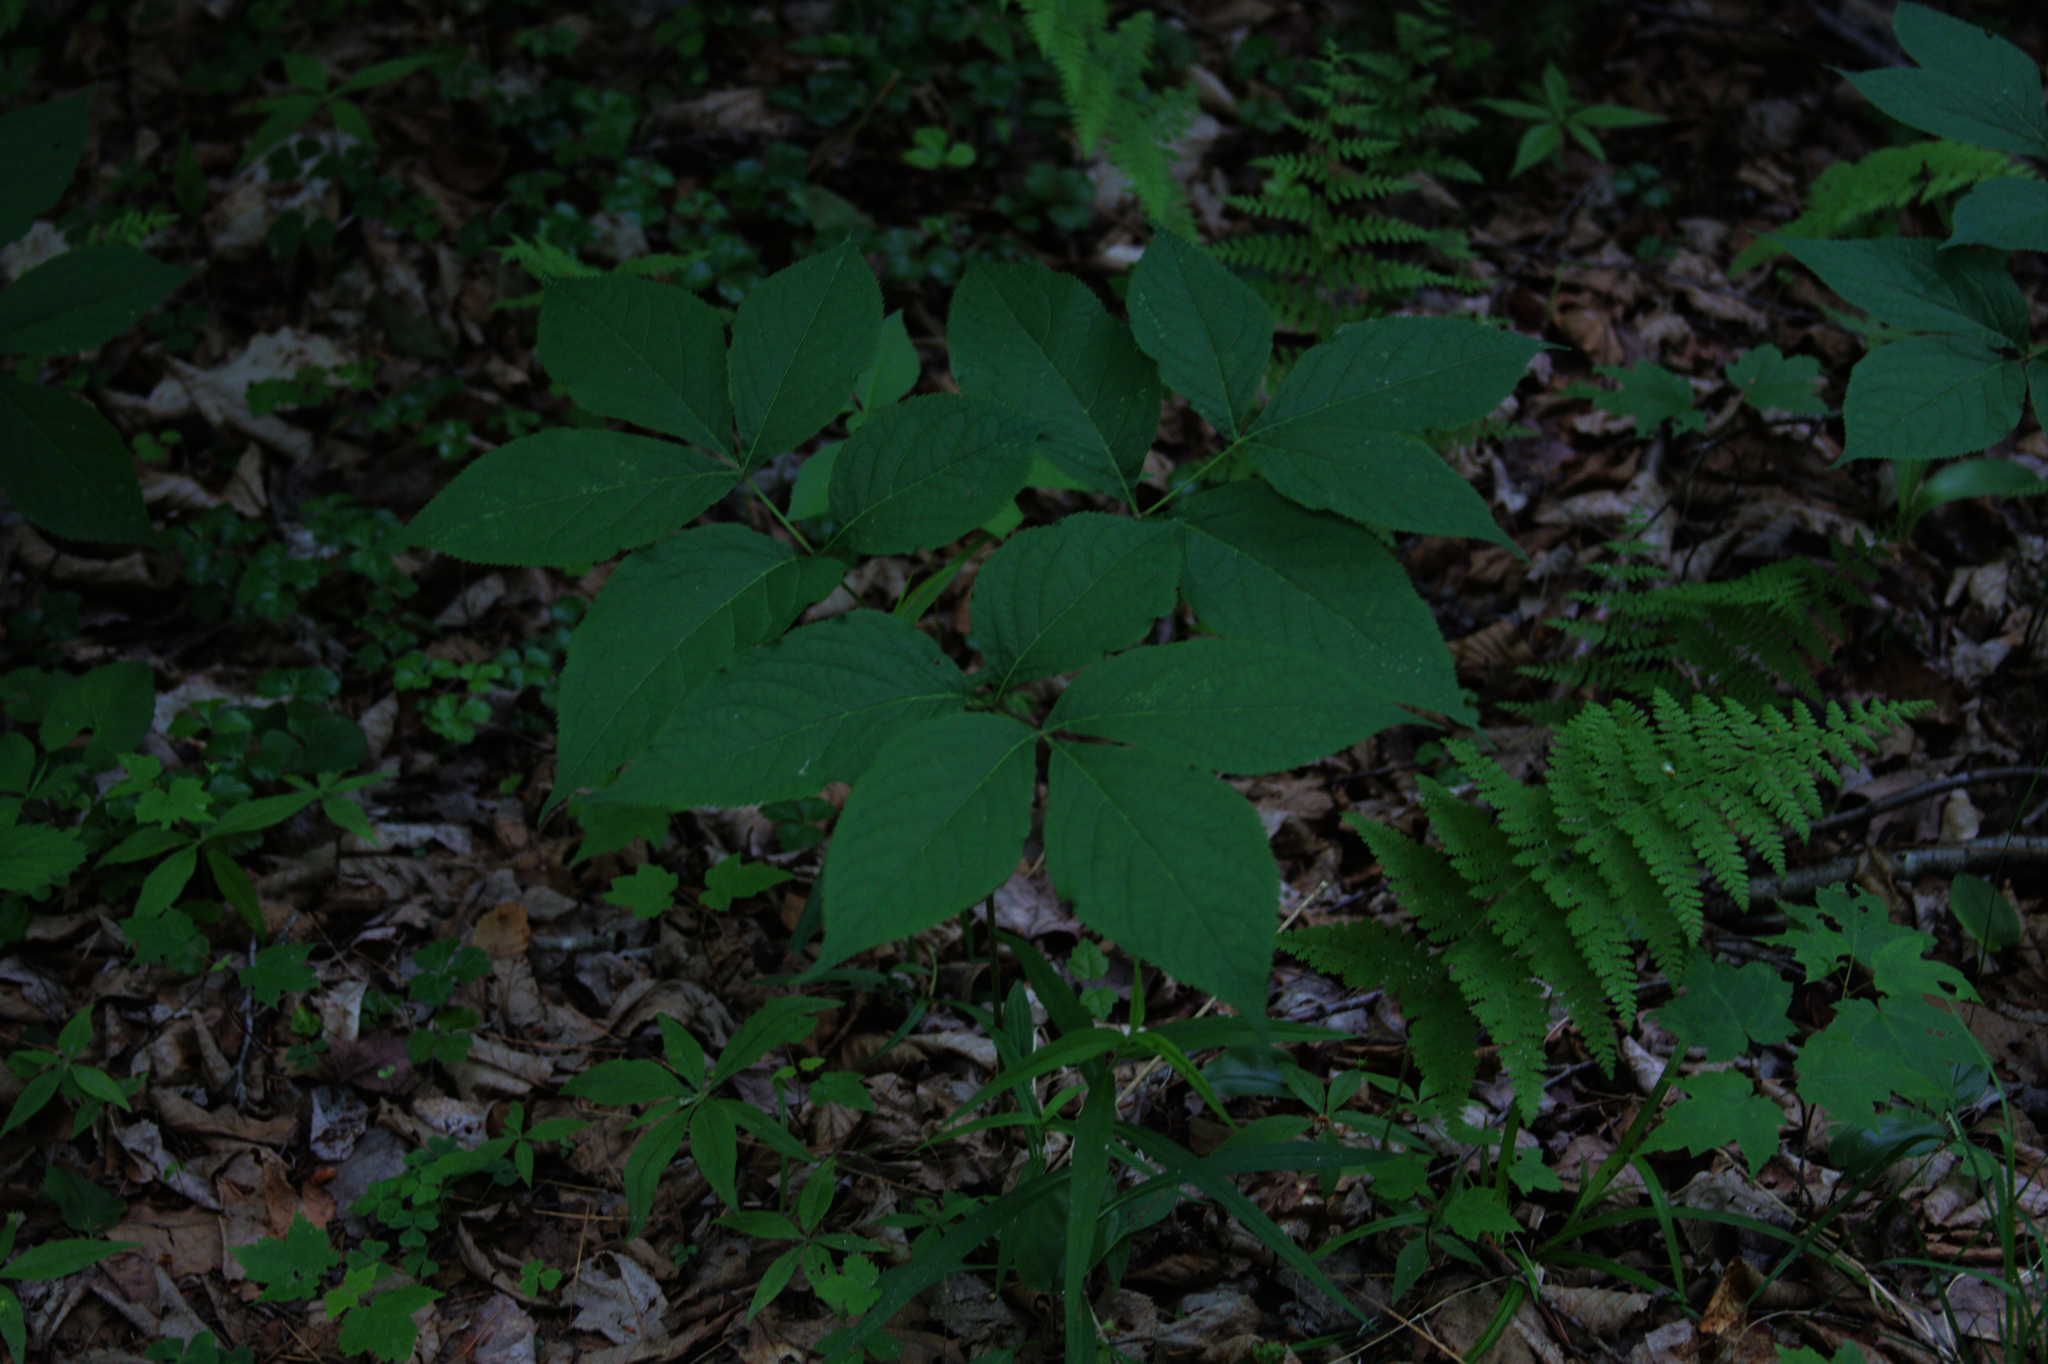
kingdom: Plantae
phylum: Tracheophyta
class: Magnoliopsida
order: Apiales
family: Araliaceae
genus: Aralia
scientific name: Aralia nudicaulis
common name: Wild sarsaparilla
